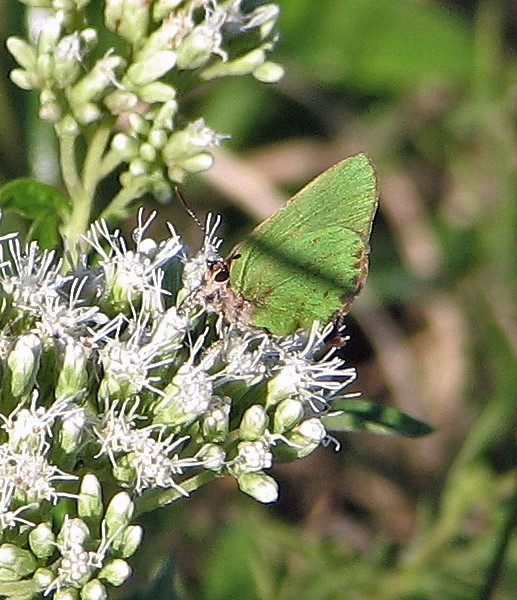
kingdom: Animalia
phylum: Arthropoda
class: Insecta
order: Lepidoptera
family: Lycaenidae
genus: Cyanophrys
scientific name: Cyanophrys
